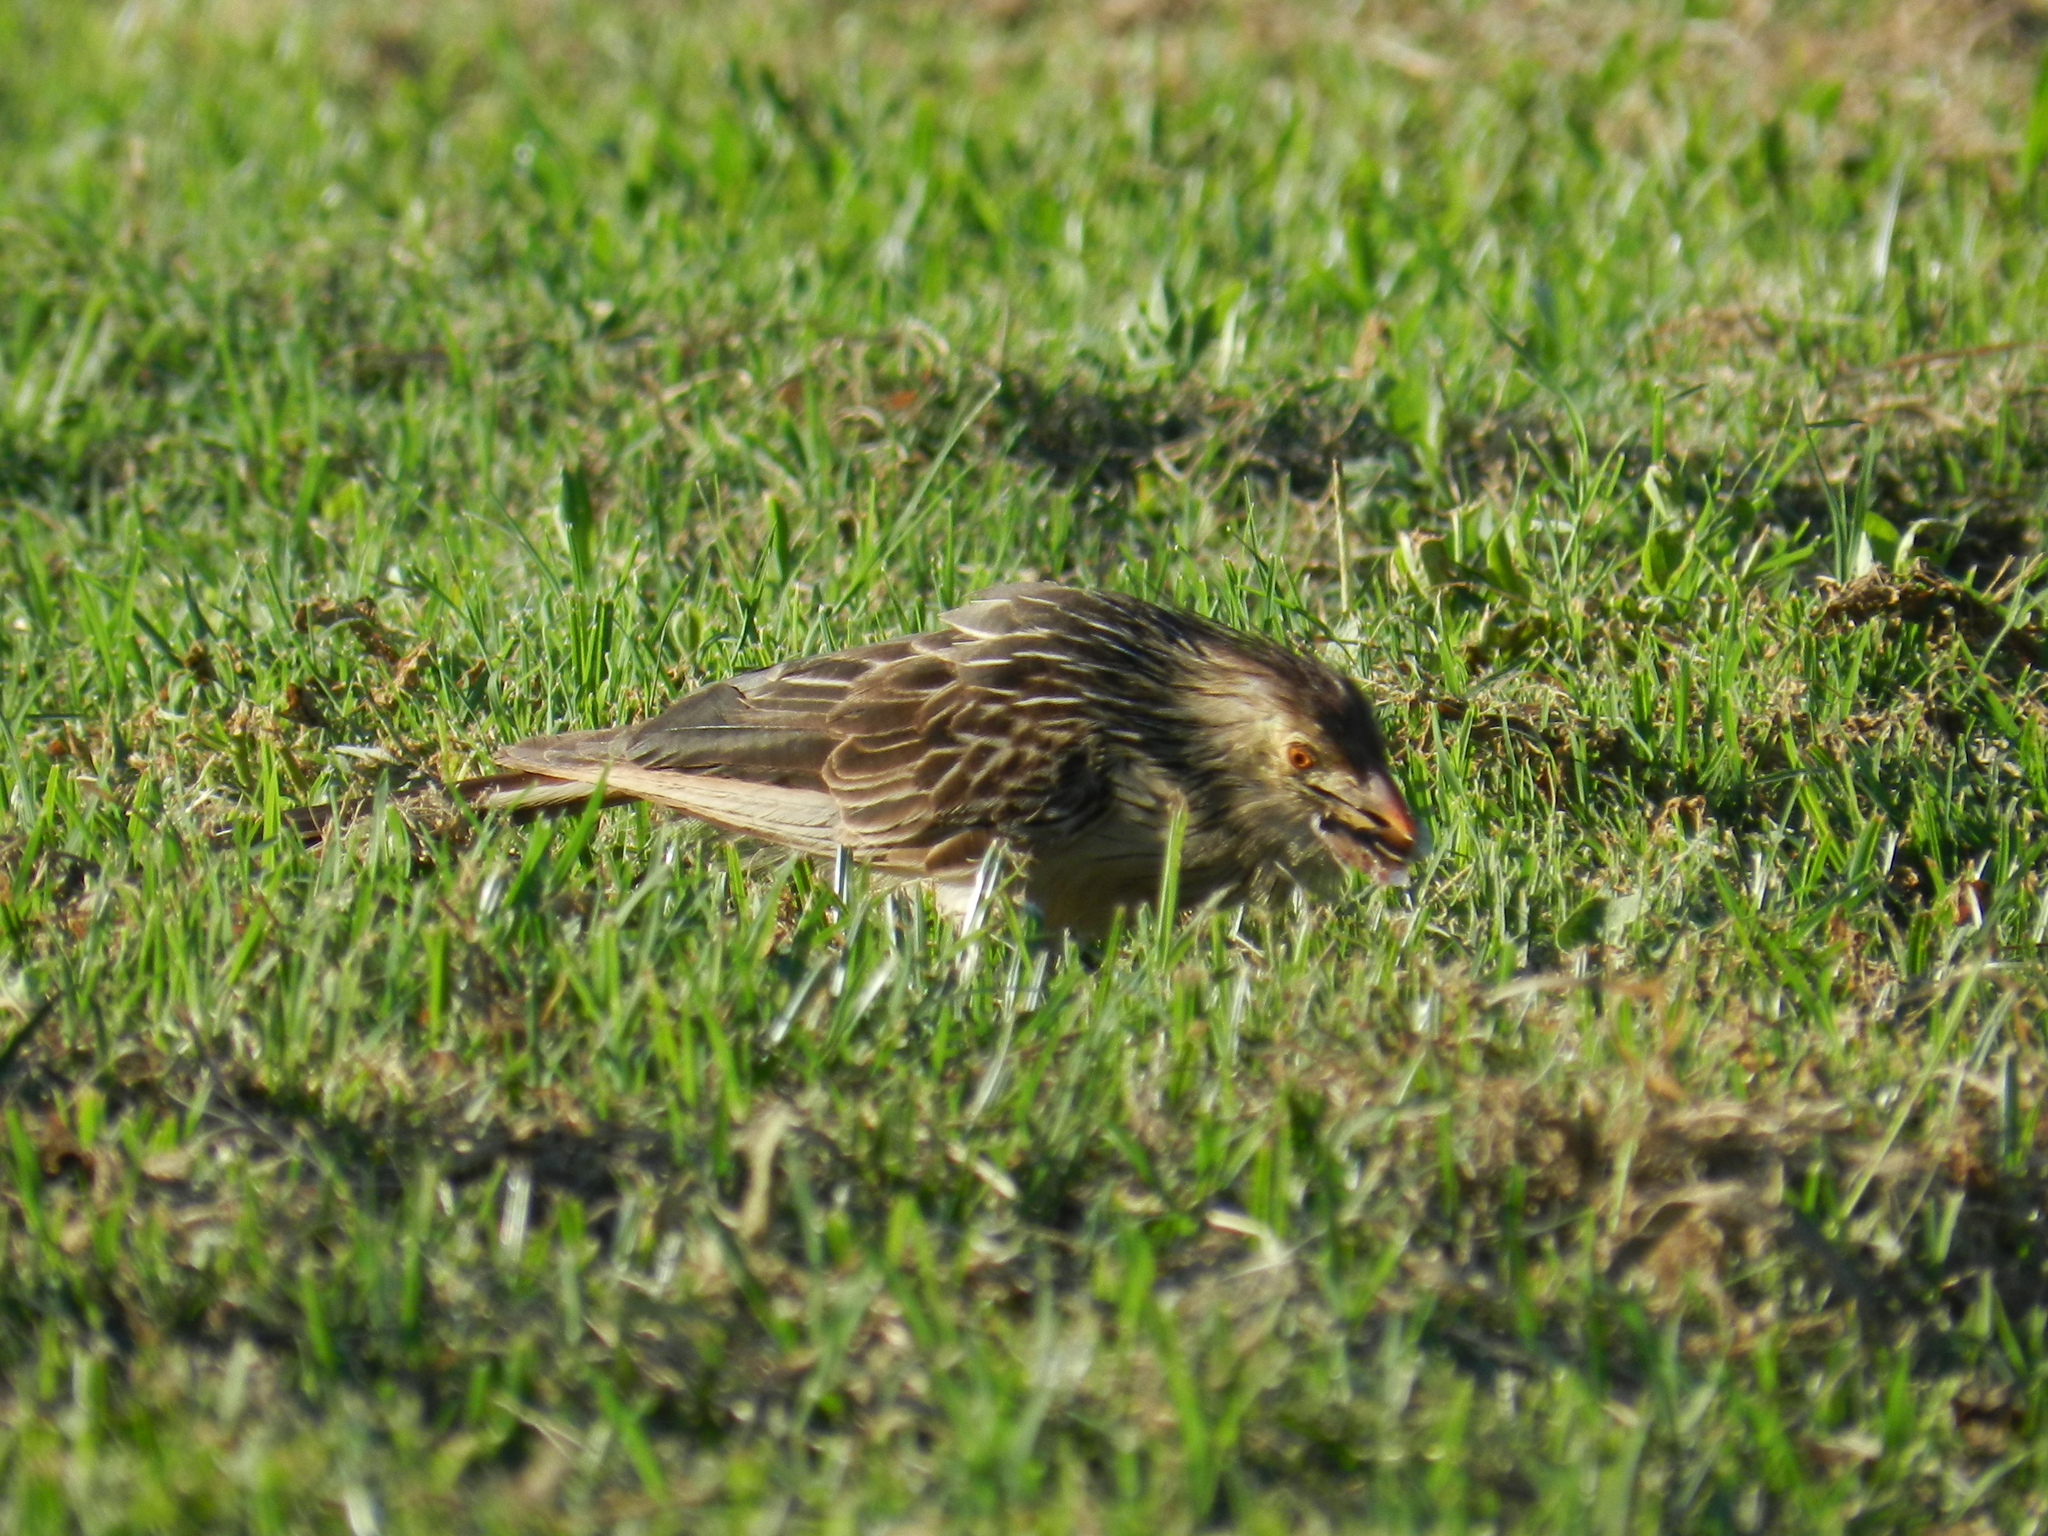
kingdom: Animalia
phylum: Chordata
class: Aves
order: Cuculiformes
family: Cuculidae
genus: Guira
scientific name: Guira guira
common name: Guira cuckoo
